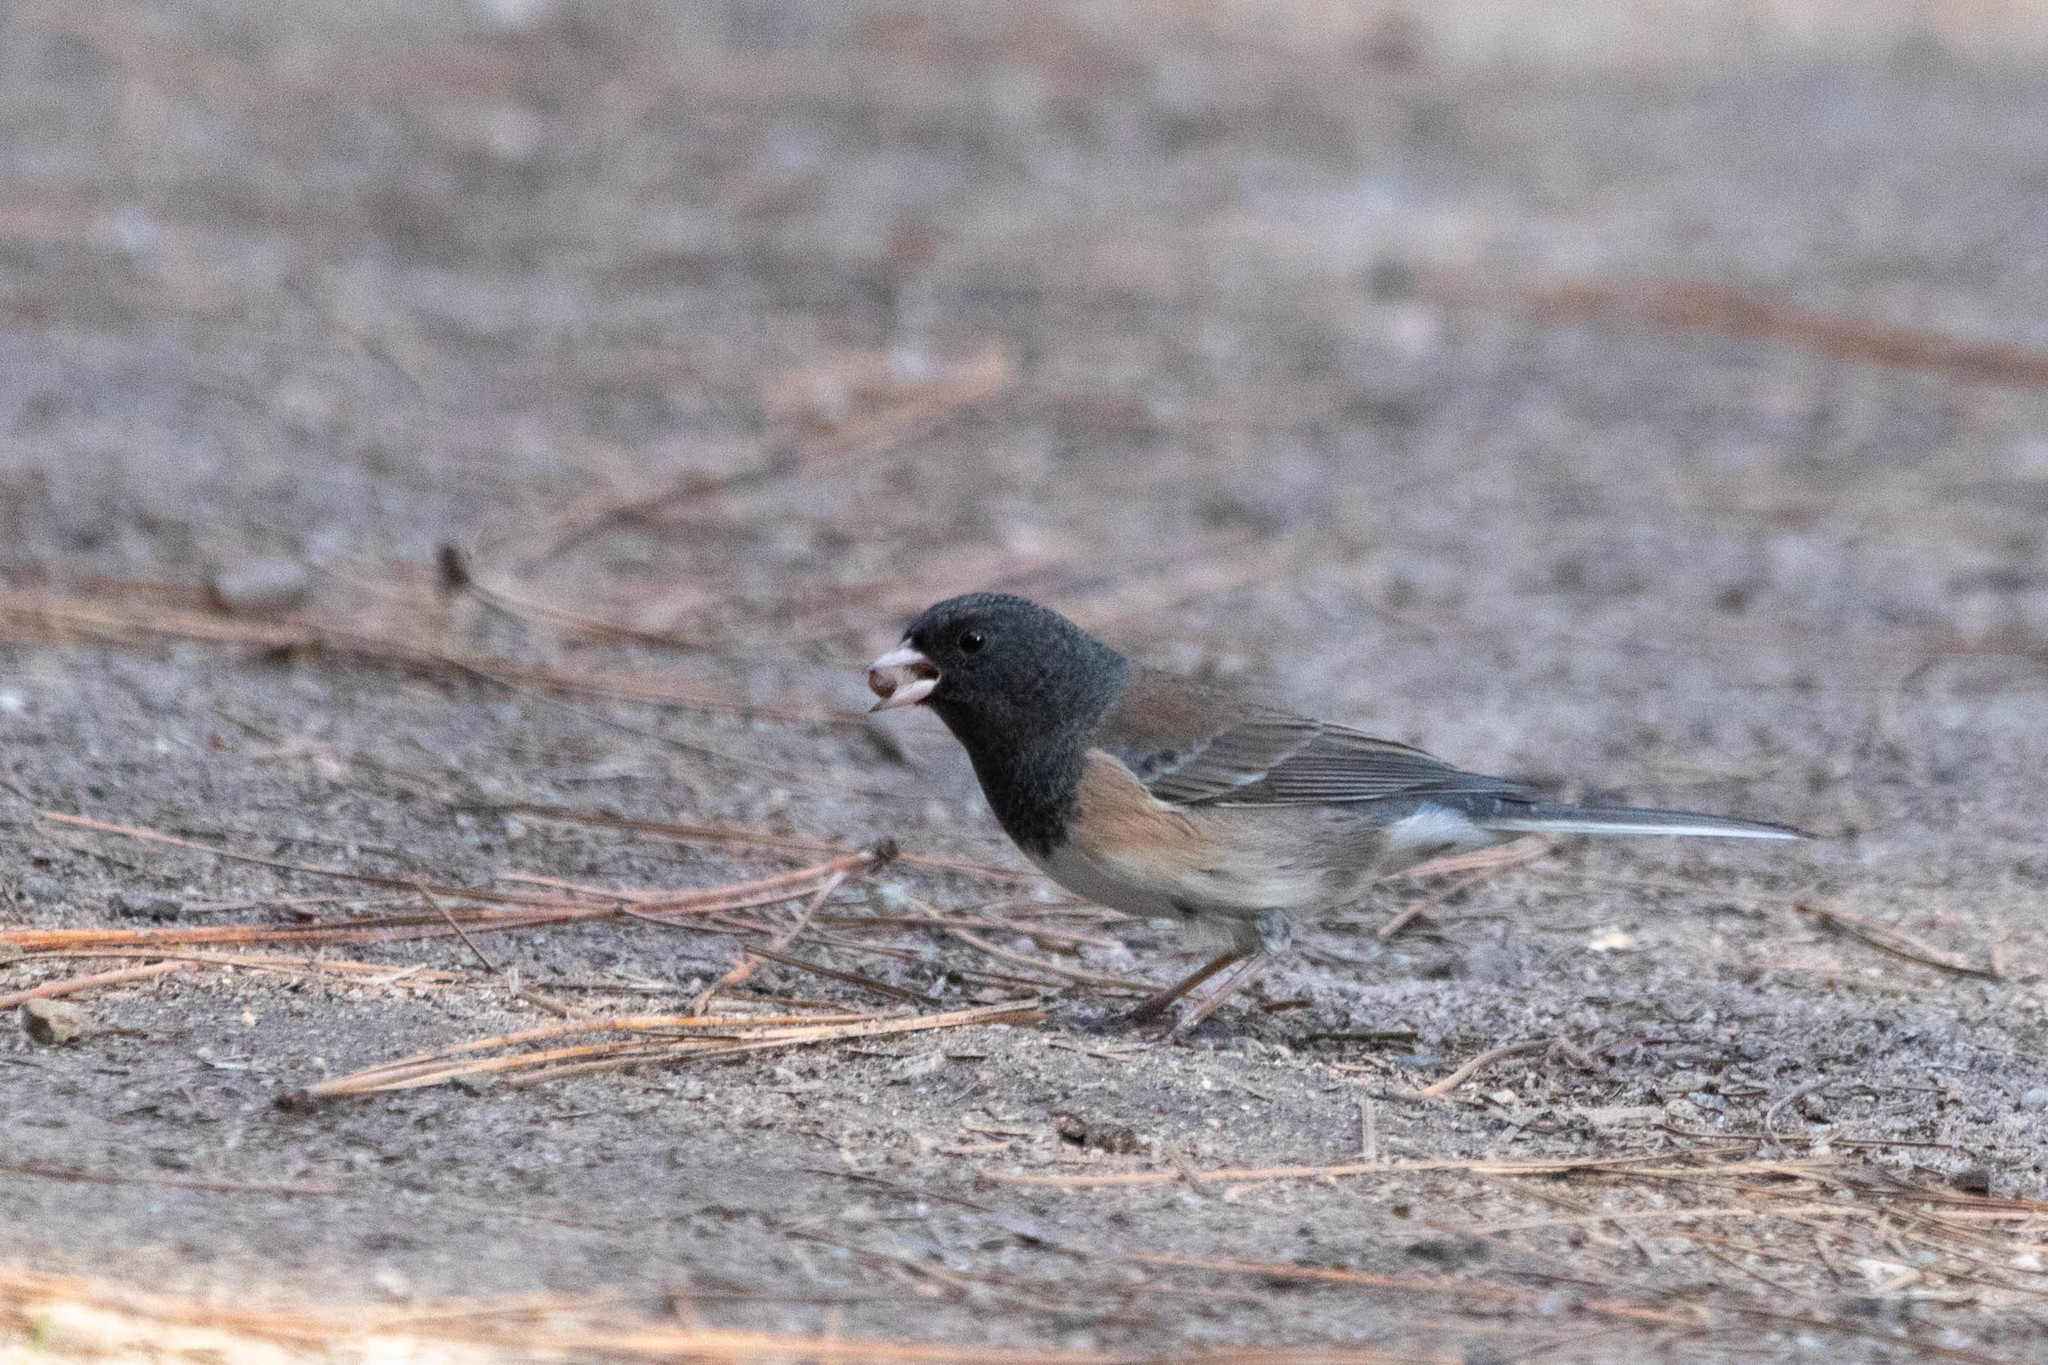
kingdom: Animalia
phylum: Chordata
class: Aves
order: Passeriformes
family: Passerellidae
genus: Junco
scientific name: Junco hyemalis
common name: Dark-eyed junco
